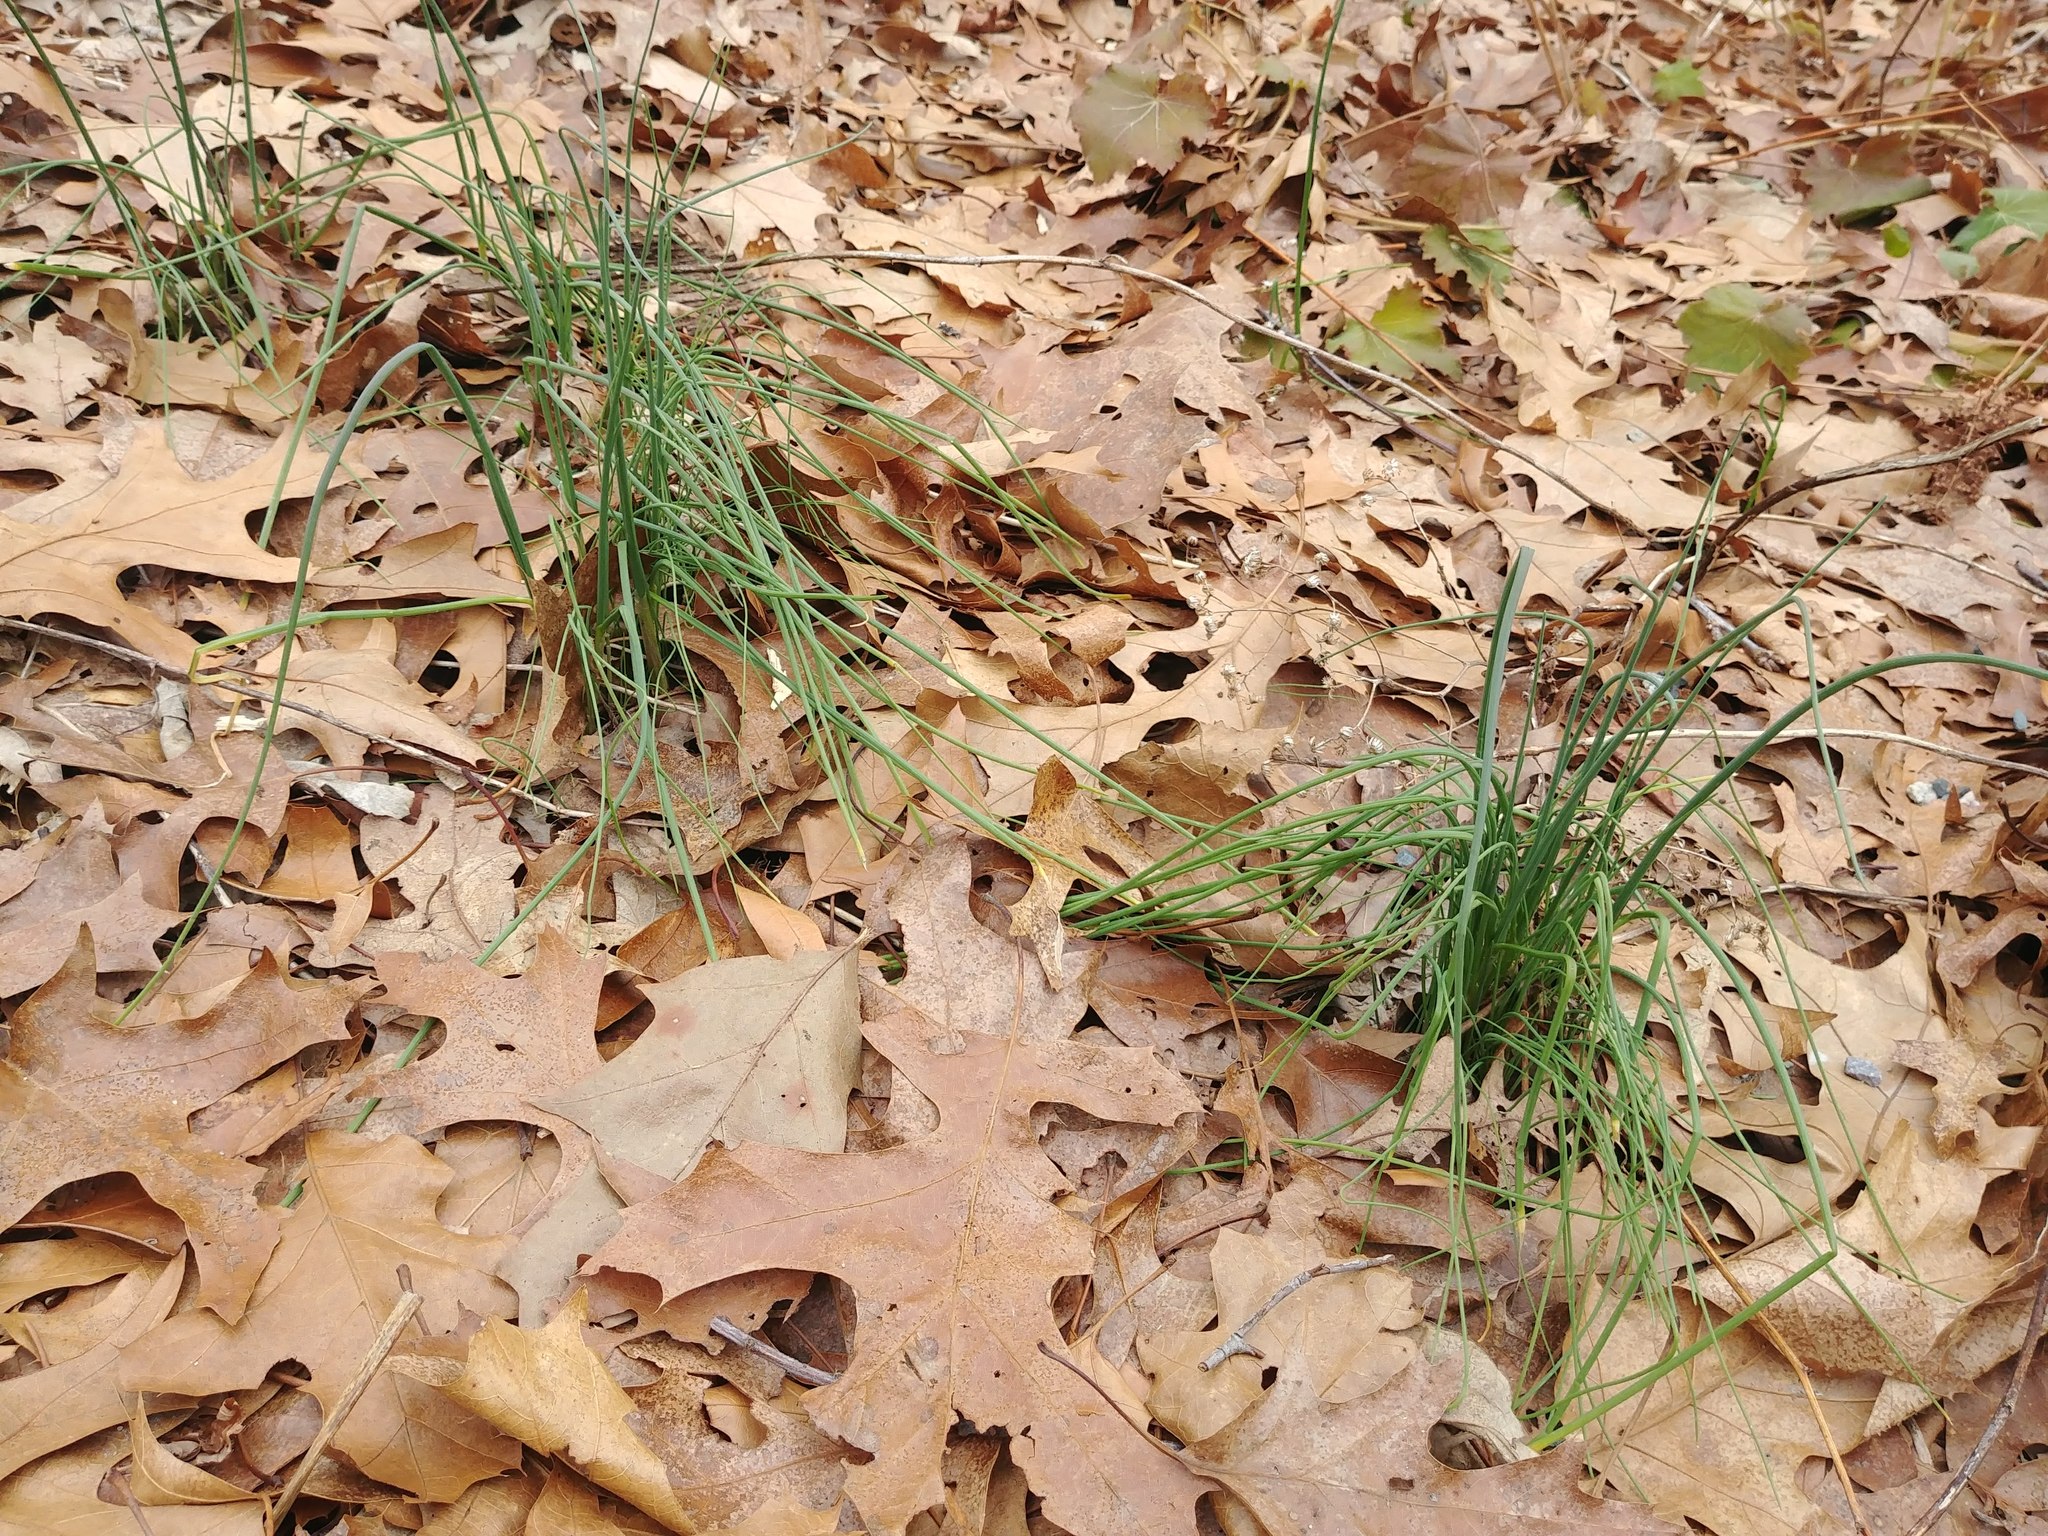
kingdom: Plantae
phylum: Tracheophyta
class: Liliopsida
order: Asparagales
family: Amaryllidaceae
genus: Allium
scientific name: Allium vineale
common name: Crow garlic
